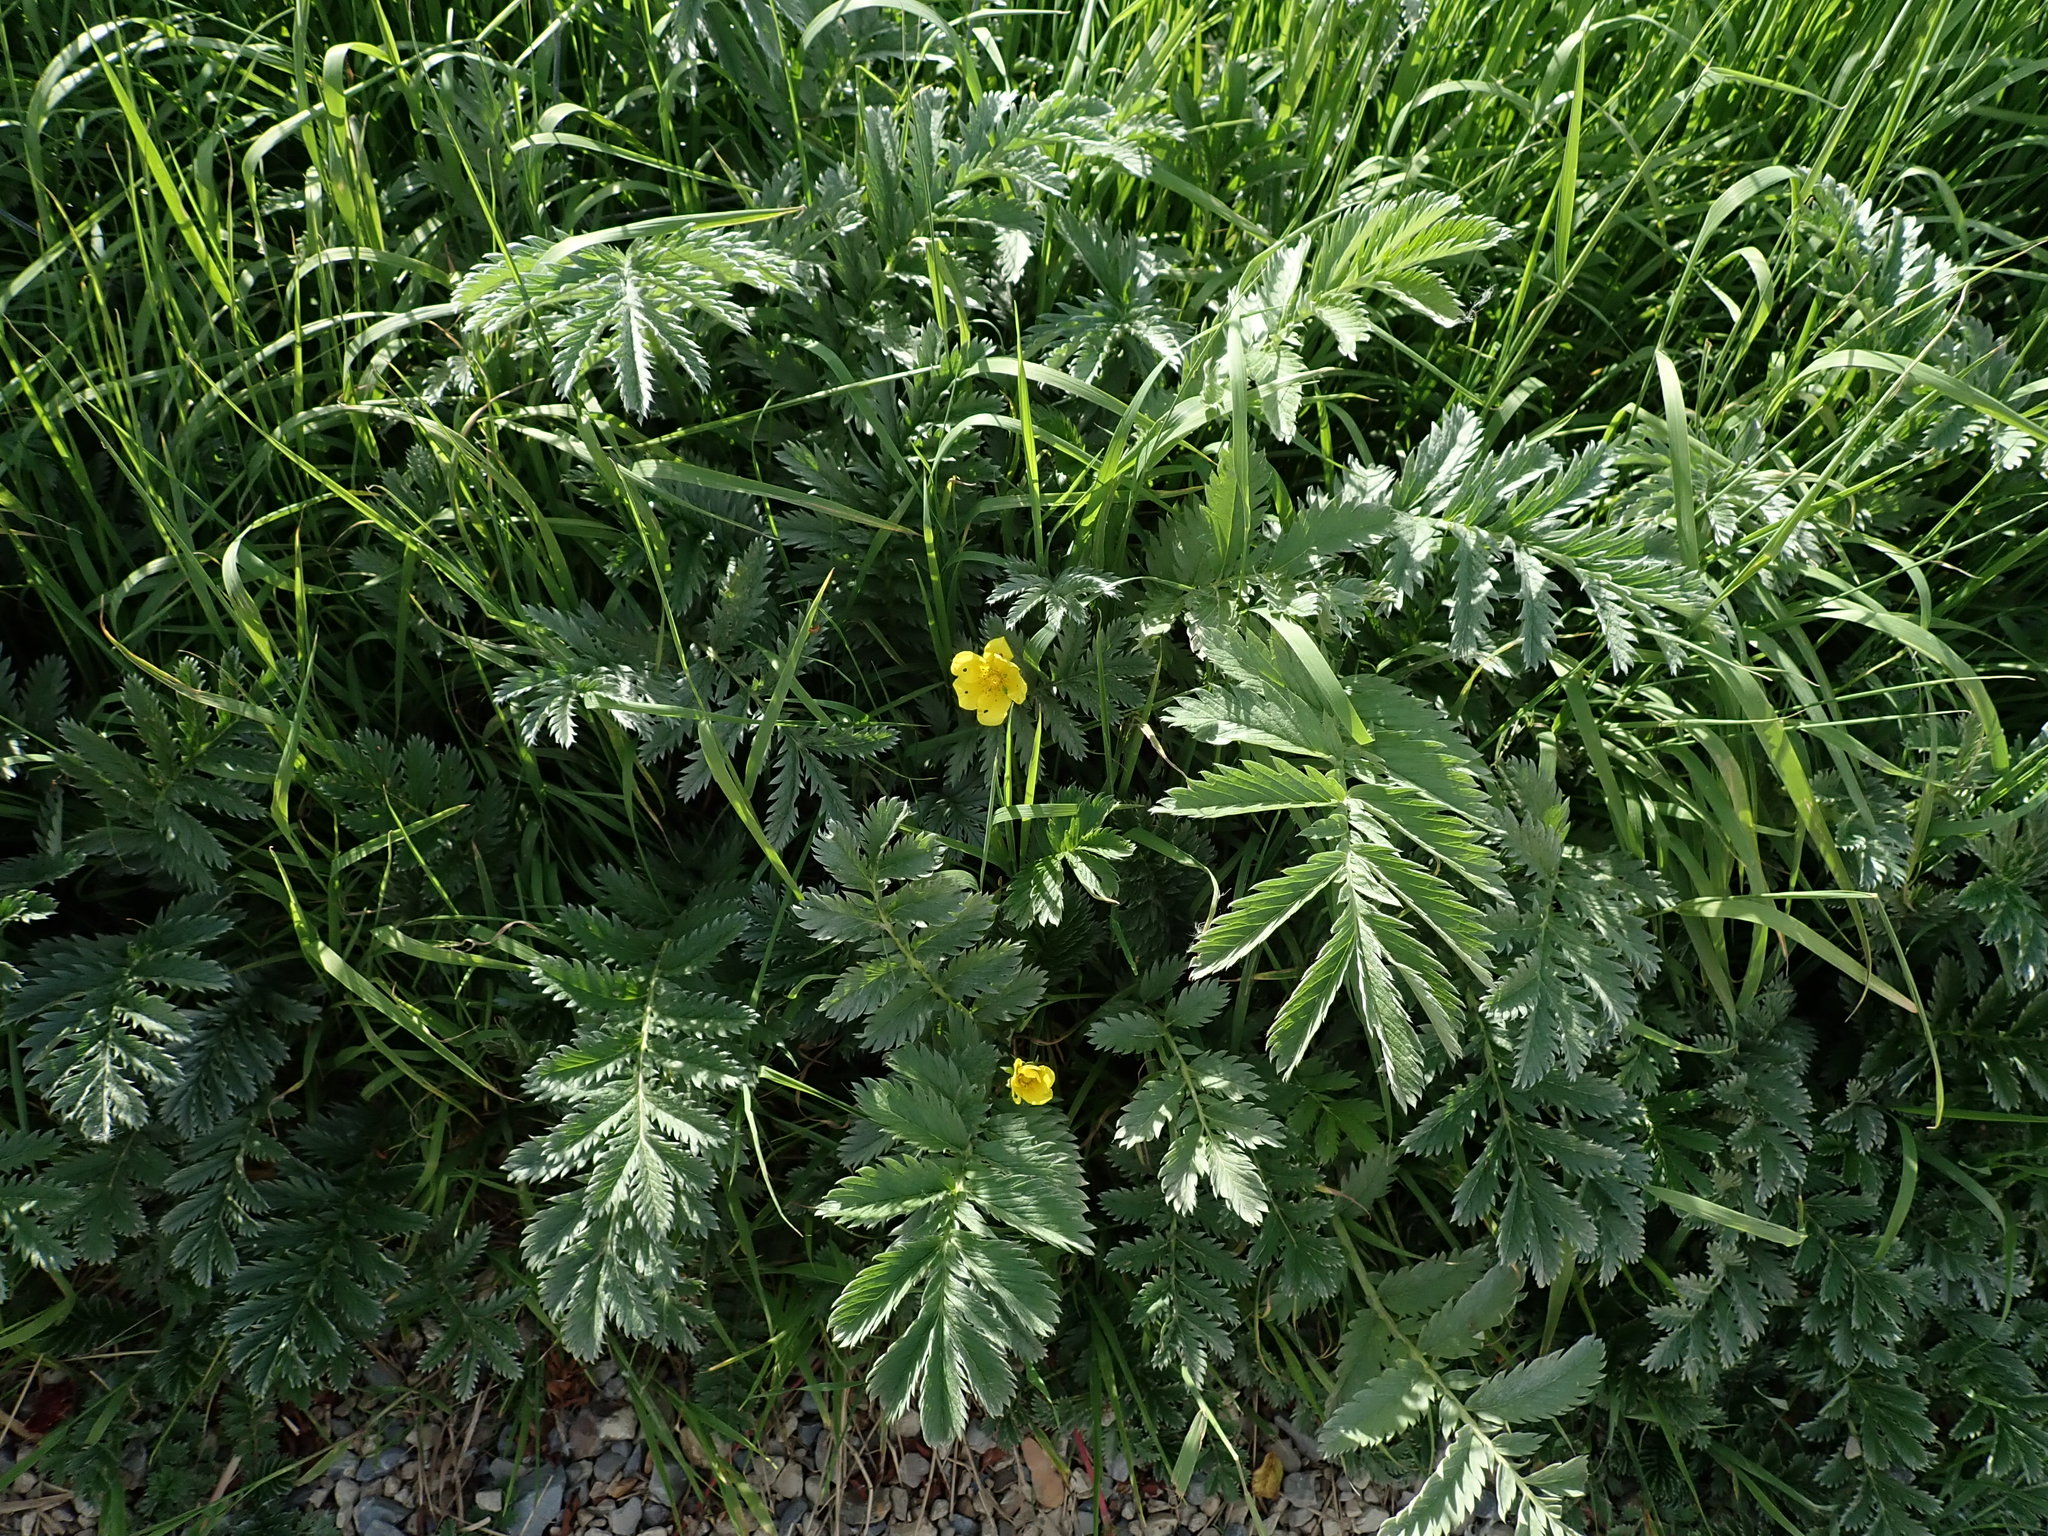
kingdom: Plantae
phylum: Tracheophyta
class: Magnoliopsida
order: Rosales
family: Rosaceae
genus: Argentina
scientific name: Argentina anserina
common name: Common silverweed
